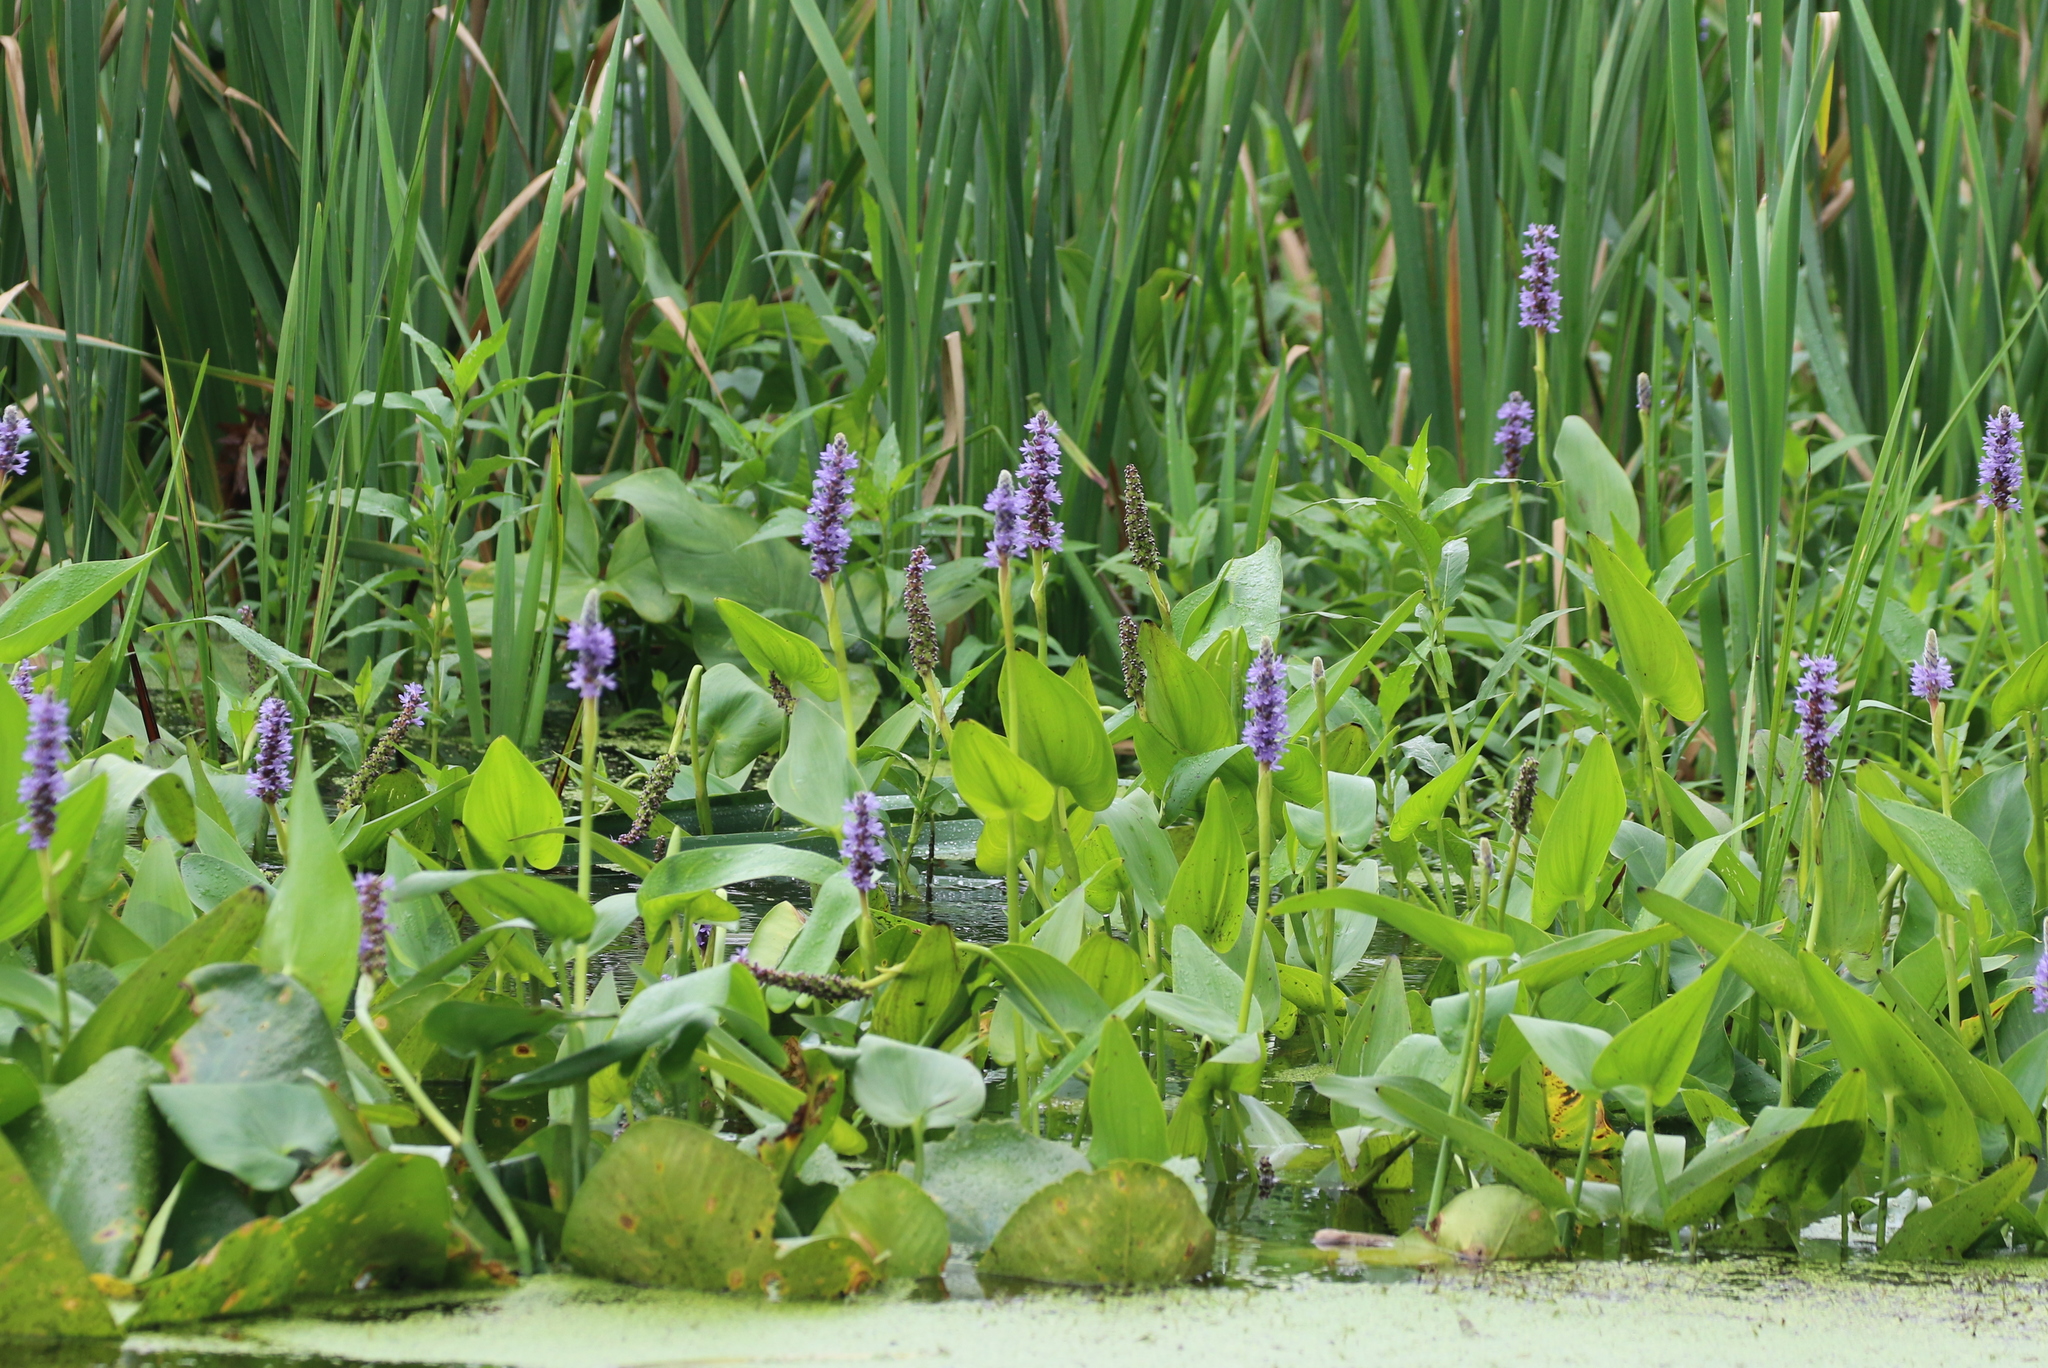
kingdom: Plantae
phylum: Tracheophyta
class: Liliopsida
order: Commelinales
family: Pontederiaceae
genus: Pontederia
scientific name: Pontederia cordata
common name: Pickerelweed
